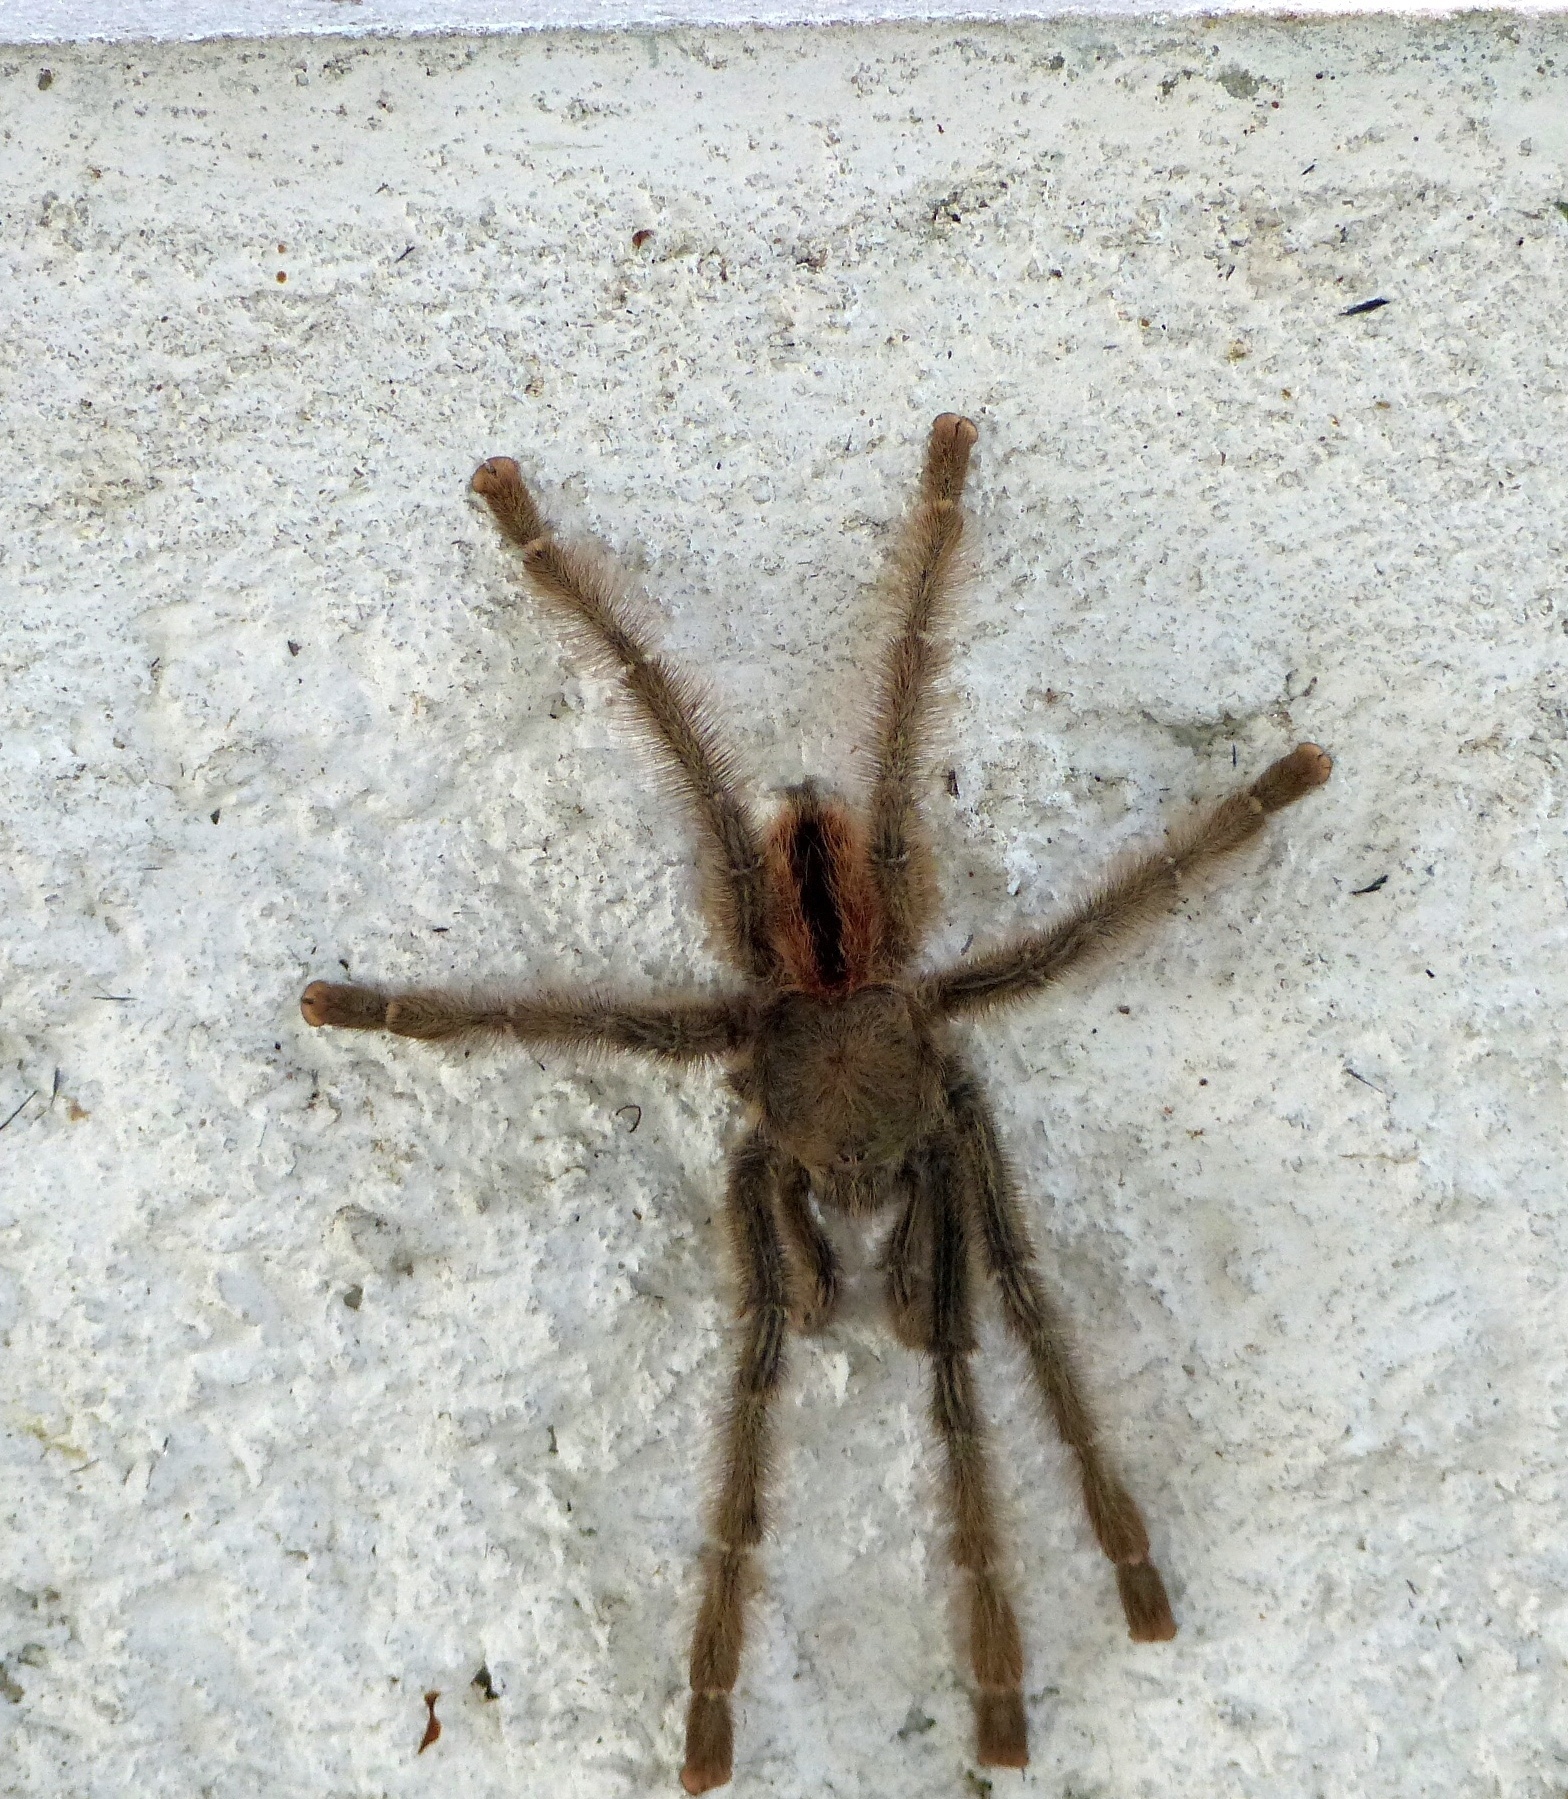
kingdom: Animalia
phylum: Arthropoda
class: Arachnida
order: Araneae
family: Theraphosidae
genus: Iridopelma
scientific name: Iridopelma hirsutum
